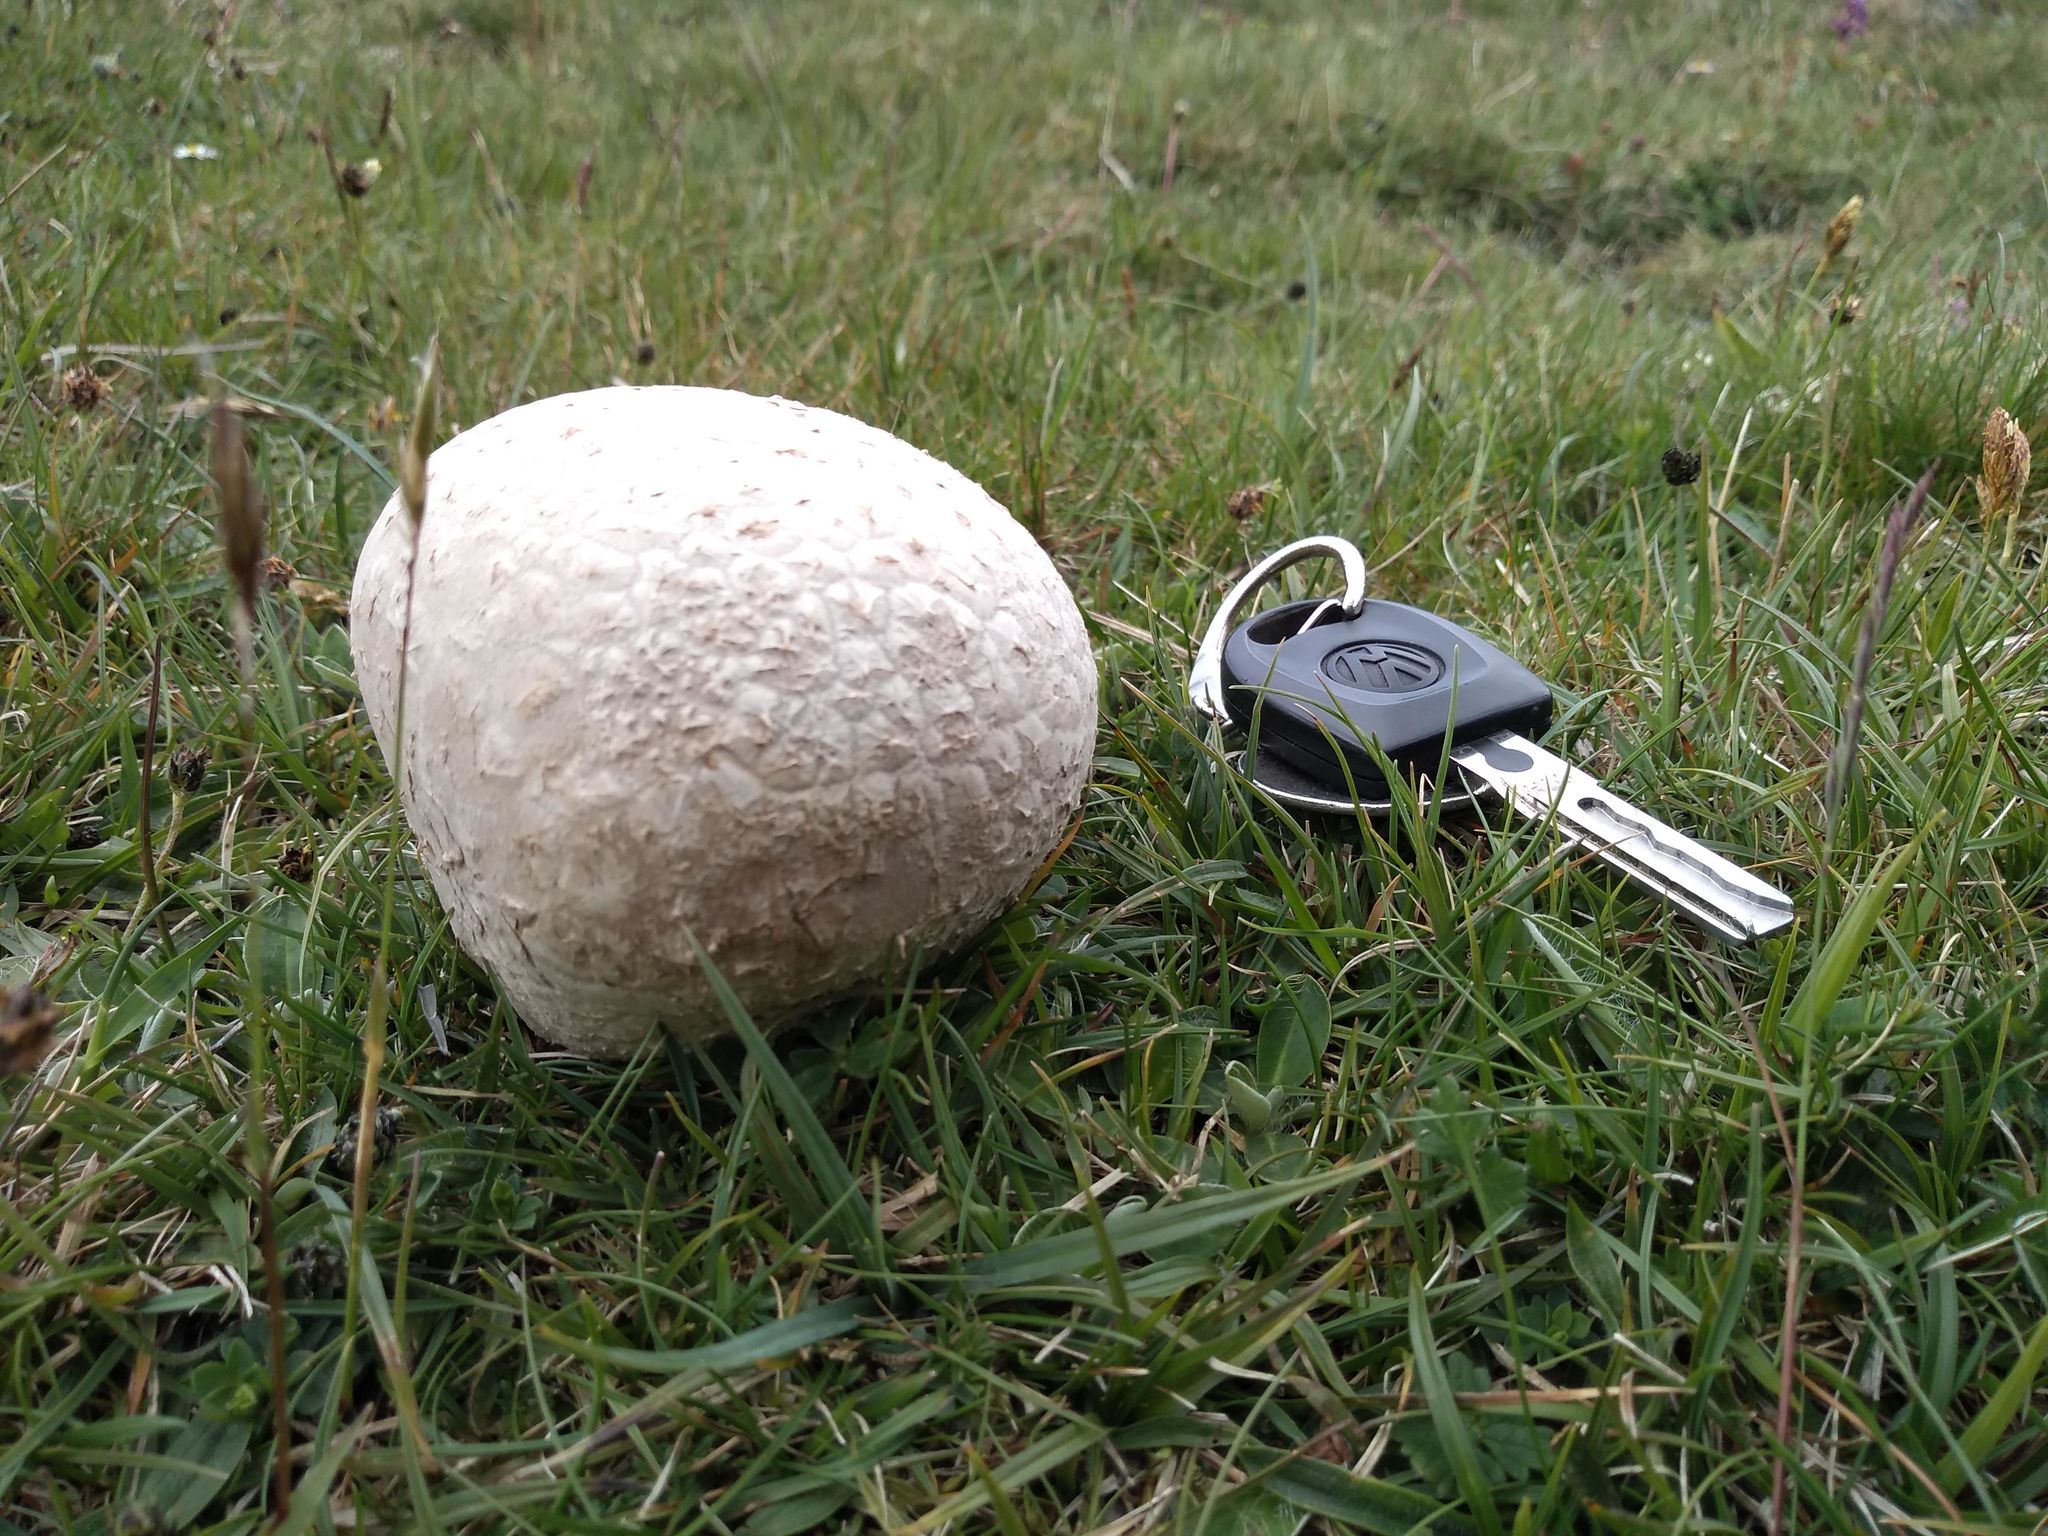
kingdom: Fungi
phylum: Basidiomycota
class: Agaricomycetes
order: Agaricales
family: Lycoperdaceae
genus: Bovistella
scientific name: Bovistella utriformis
